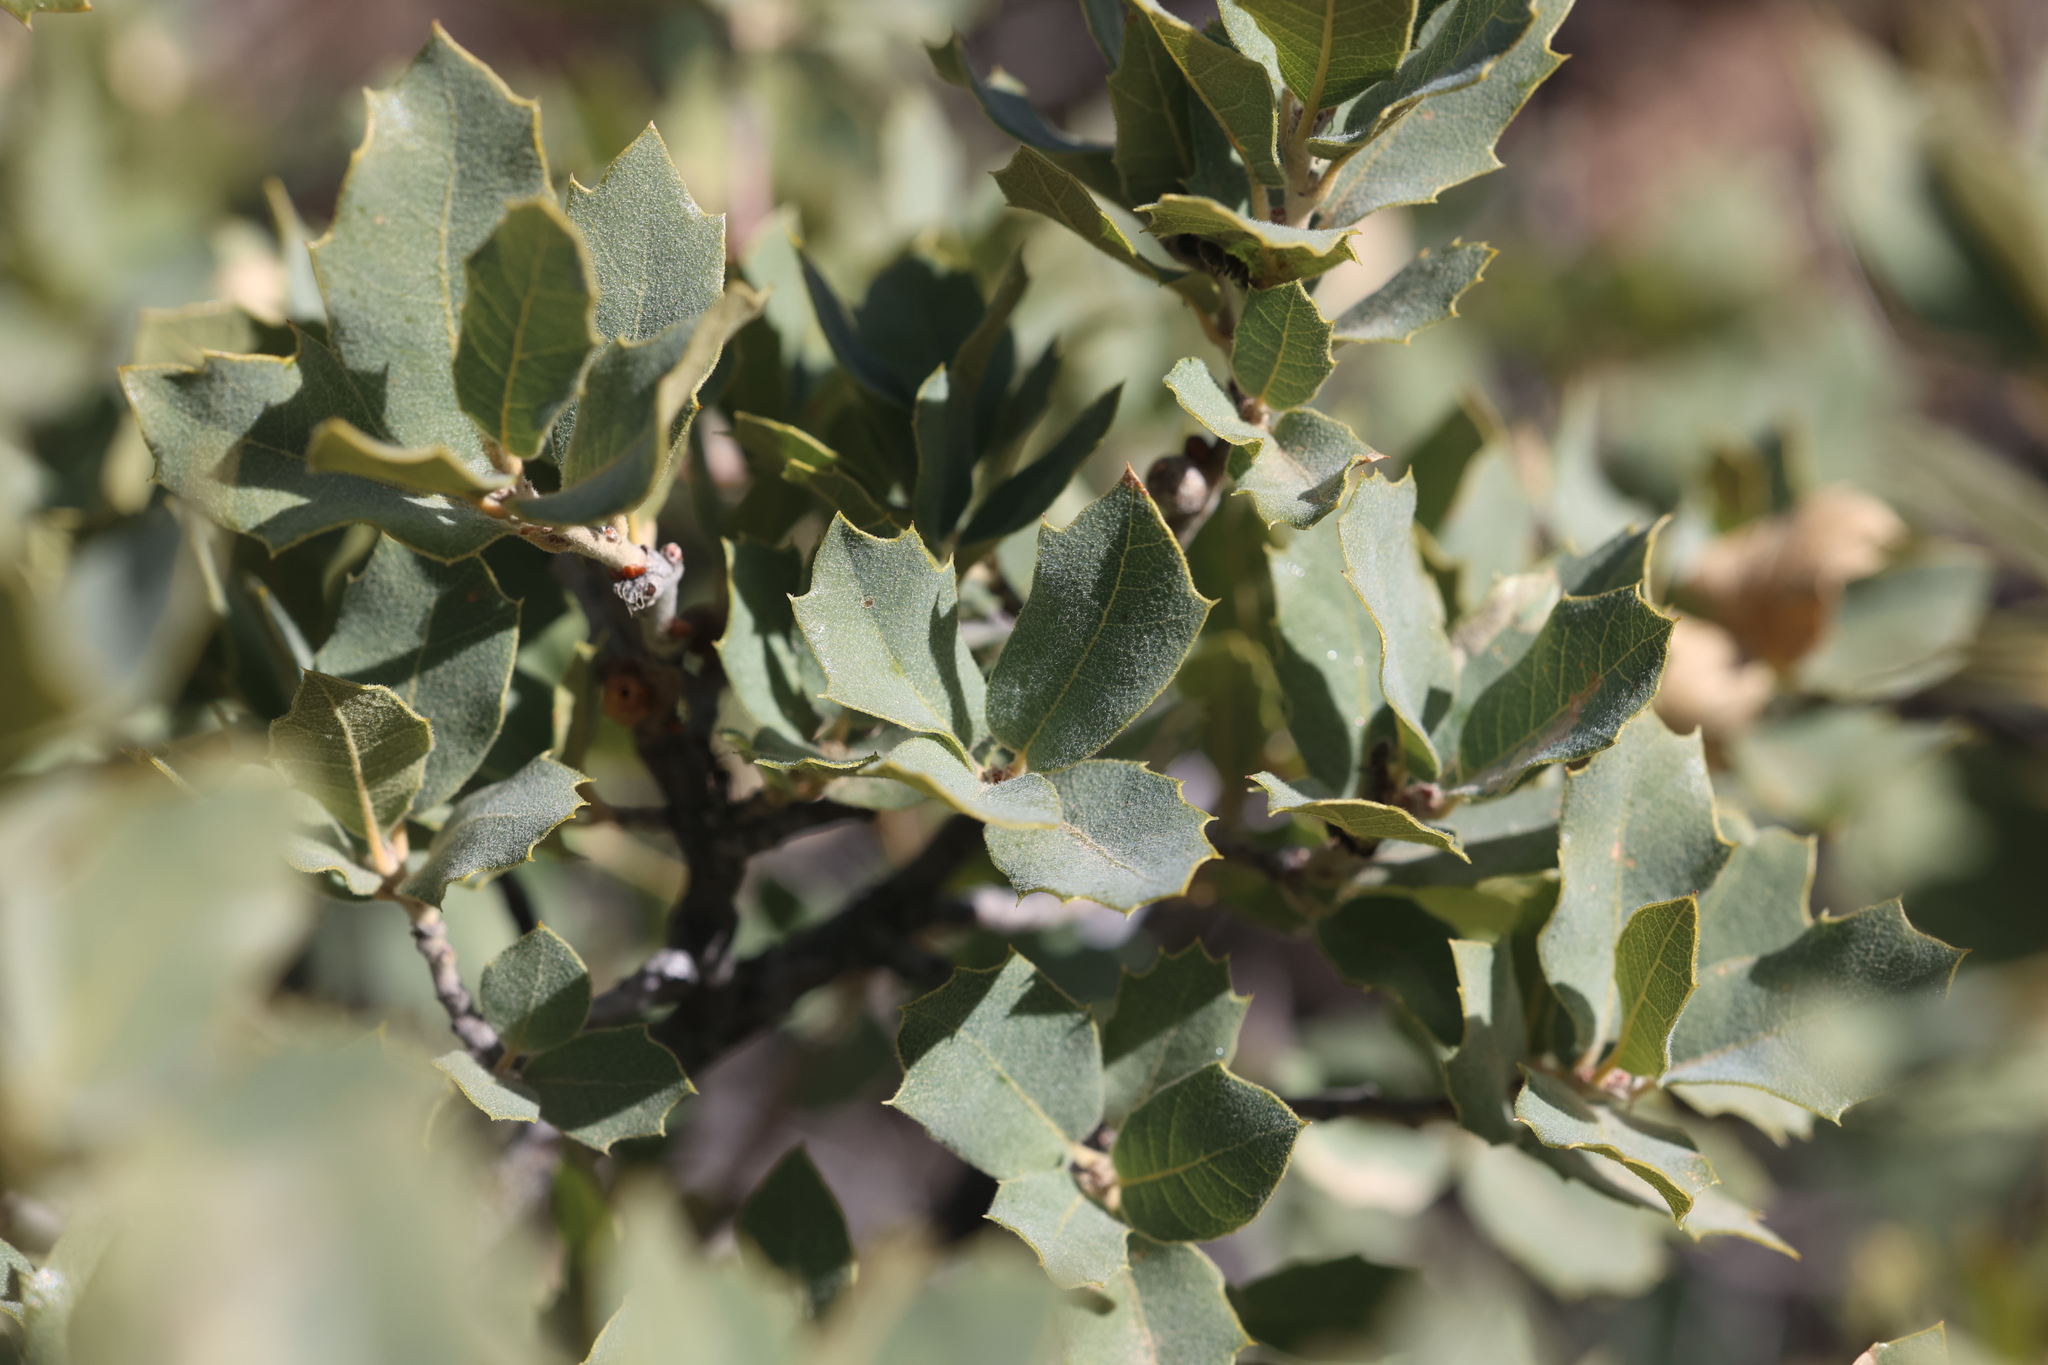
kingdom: Plantae
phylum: Tracheophyta
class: Magnoliopsida
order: Fagales
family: Fagaceae
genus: Quercus
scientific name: Quercus turbinella
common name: Sonoran scrub oak
